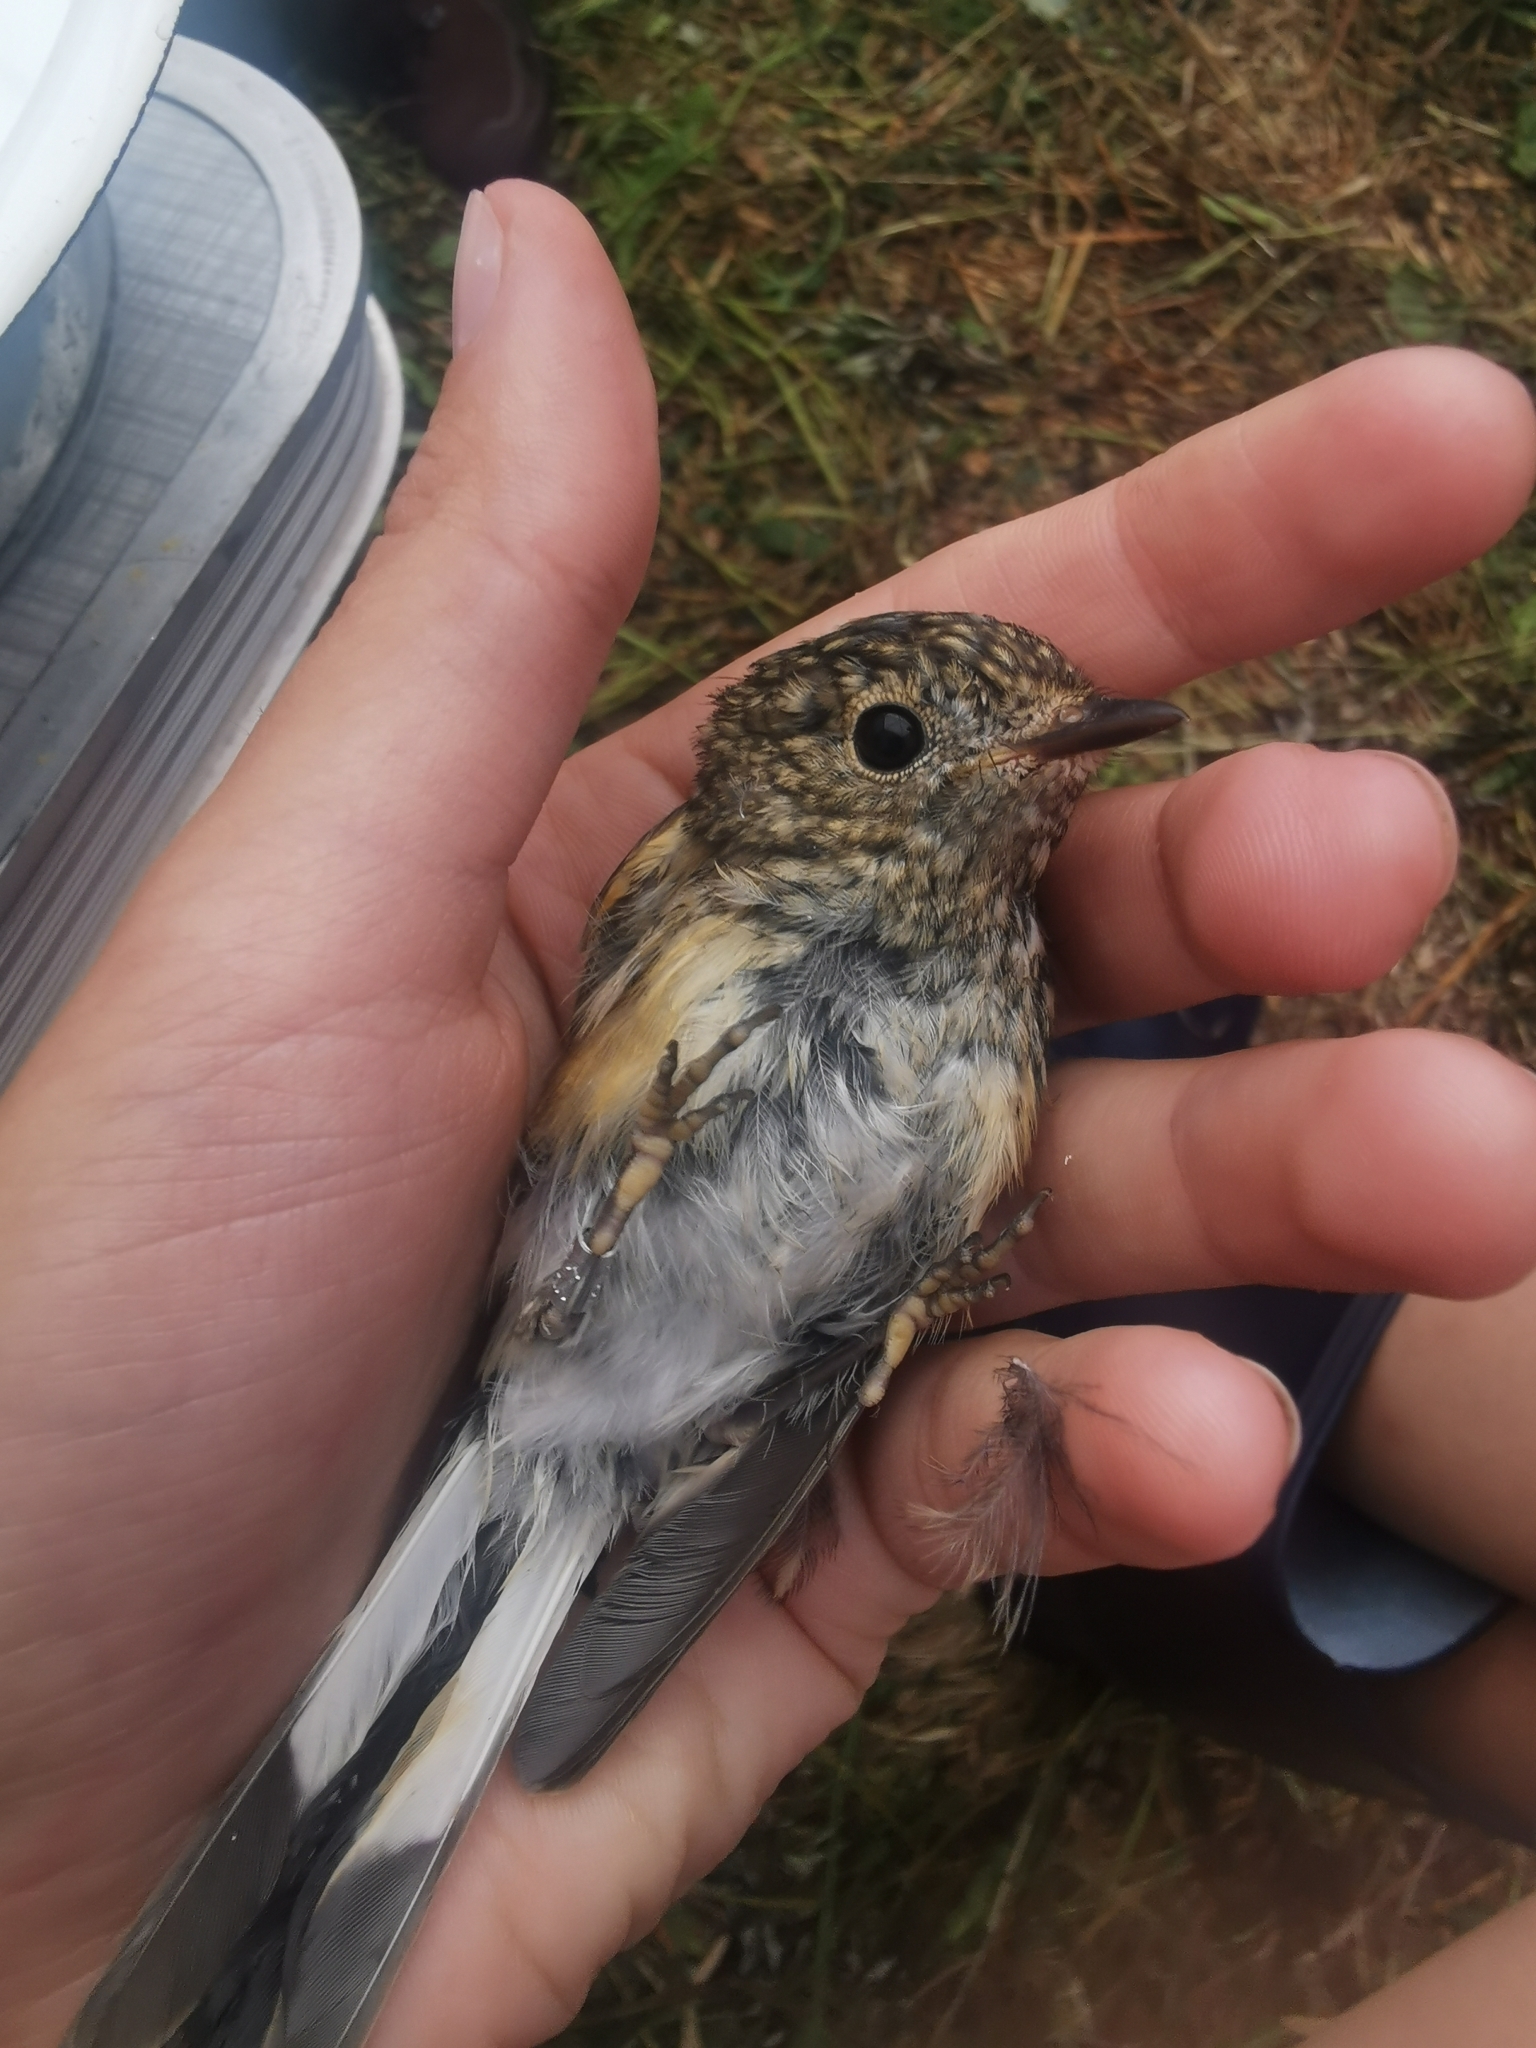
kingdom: Animalia
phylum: Chordata
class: Aves
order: Passeriformes
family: Muscicapidae
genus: Ficedula
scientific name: Ficedula albicilla
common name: Taiga flycatcher
